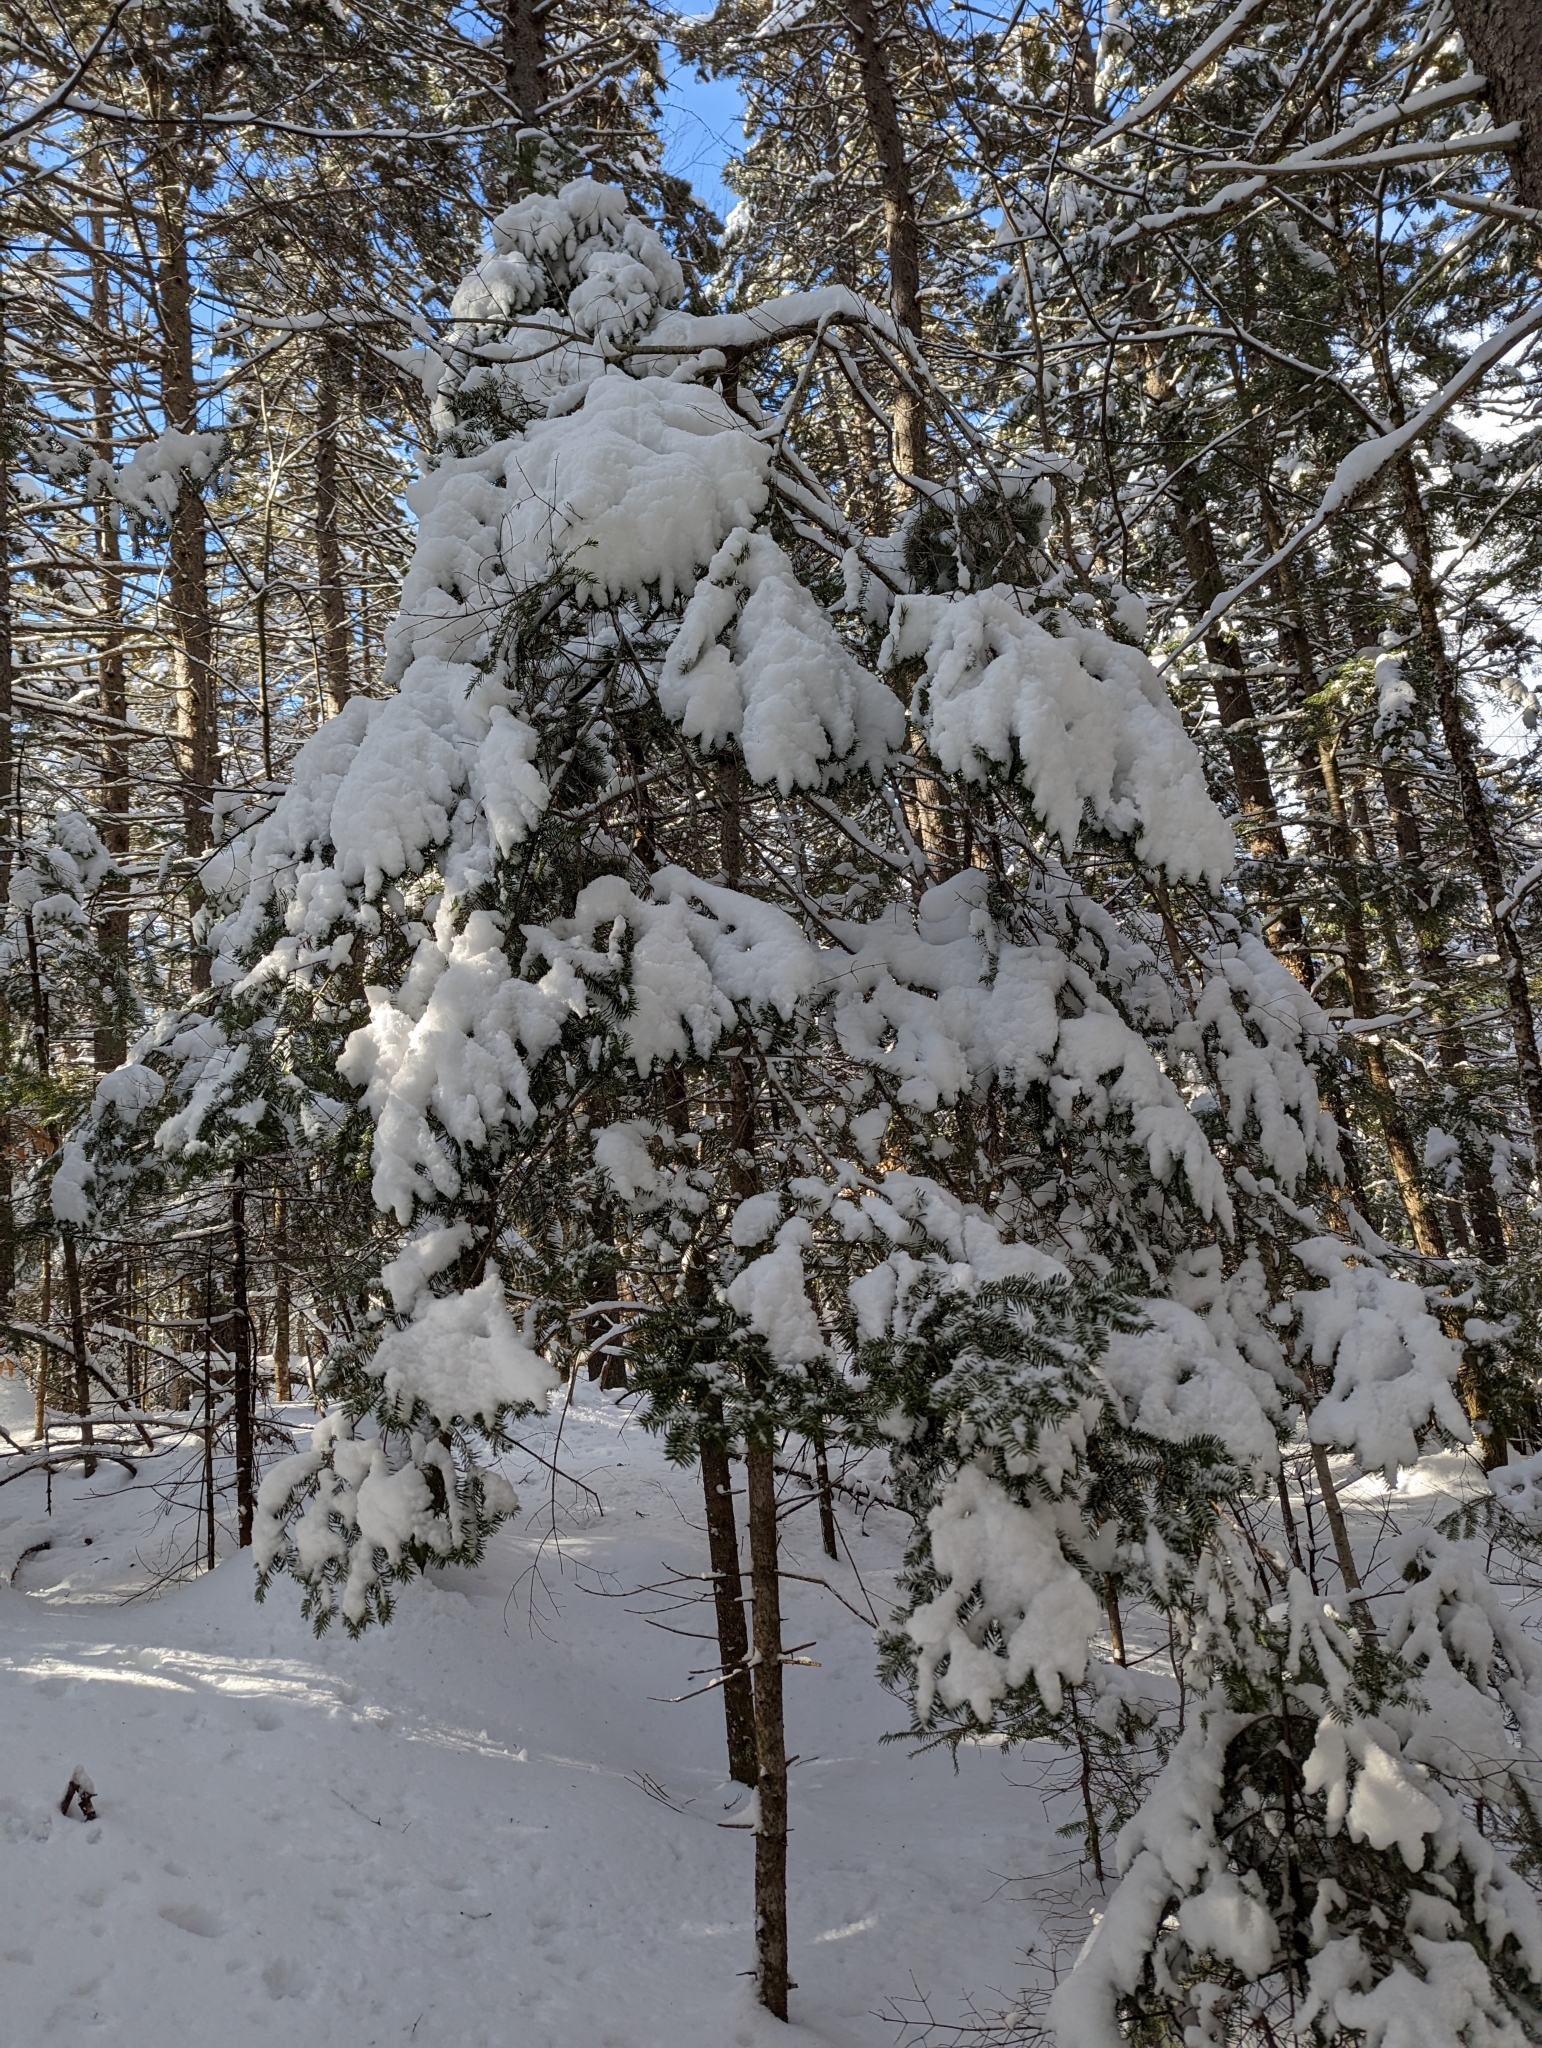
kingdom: Plantae
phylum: Tracheophyta
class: Pinopsida
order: Pinales
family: Pinaceae
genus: Abies
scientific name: Abies balsamea
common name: Balsam fir
